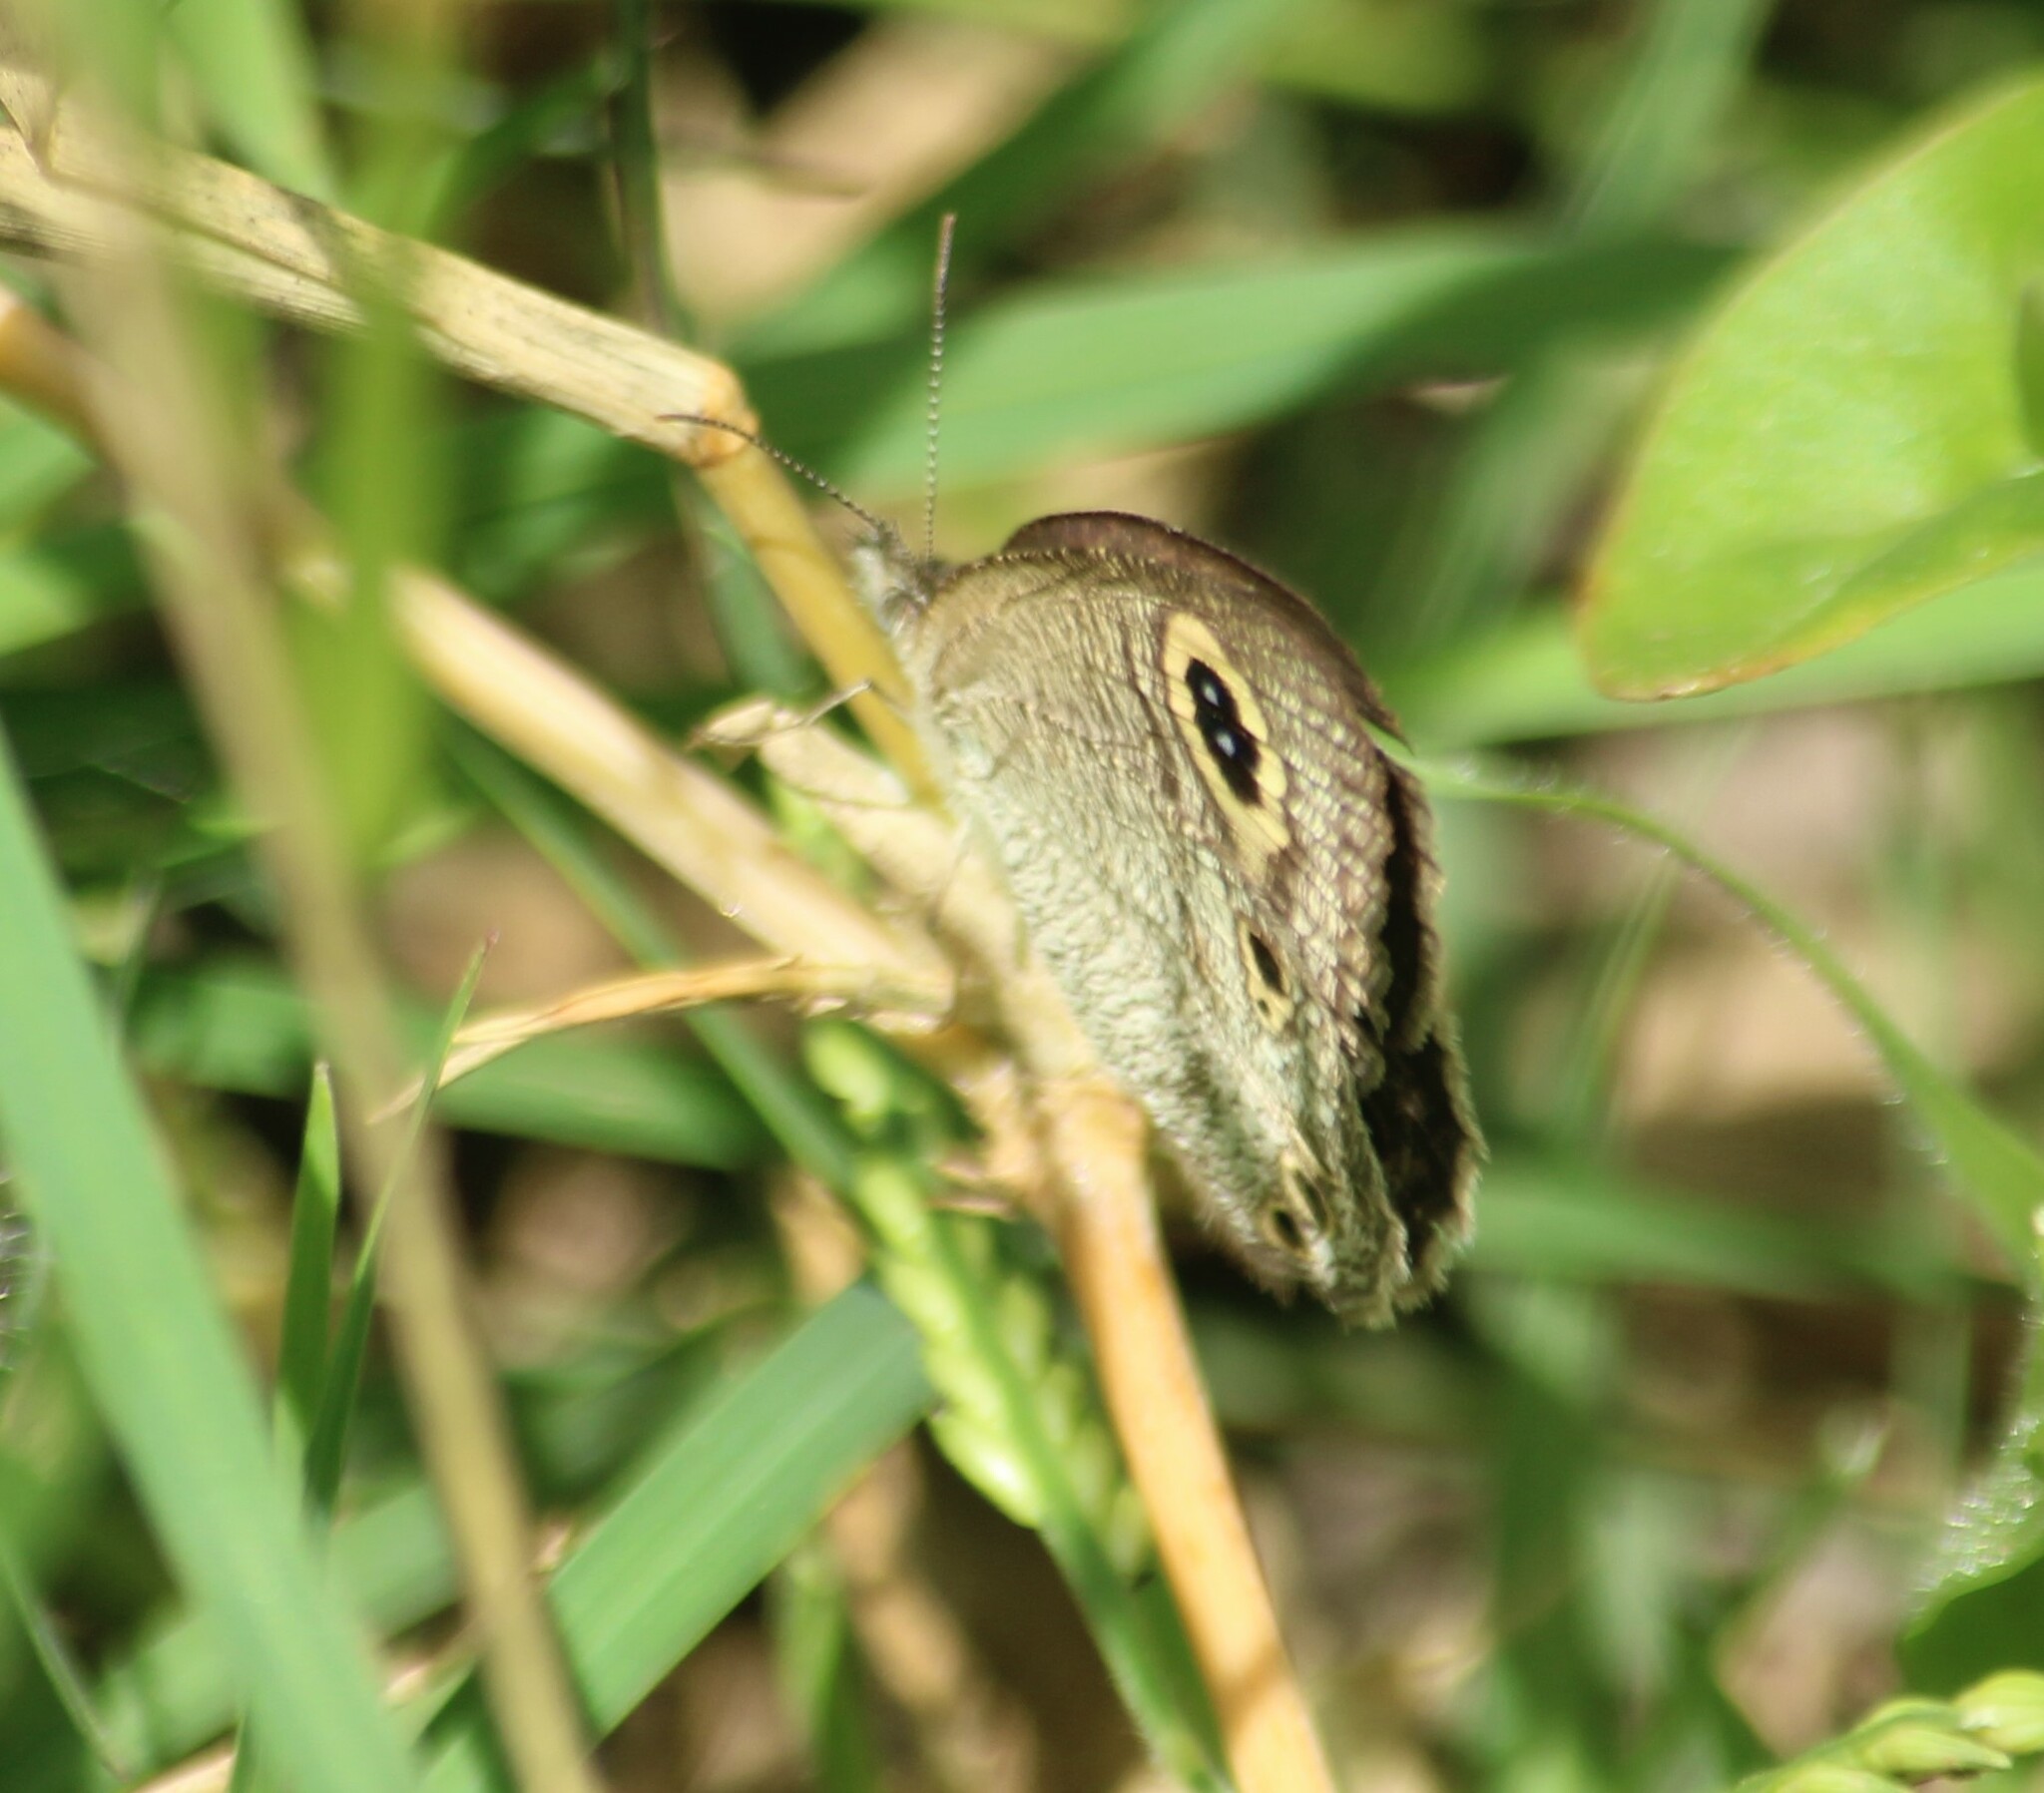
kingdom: Animalia
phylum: Arthropoda
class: Insecta
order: Lepidoptera
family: Nymphalidae
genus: Ypthima
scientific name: Ypthima huebneri
